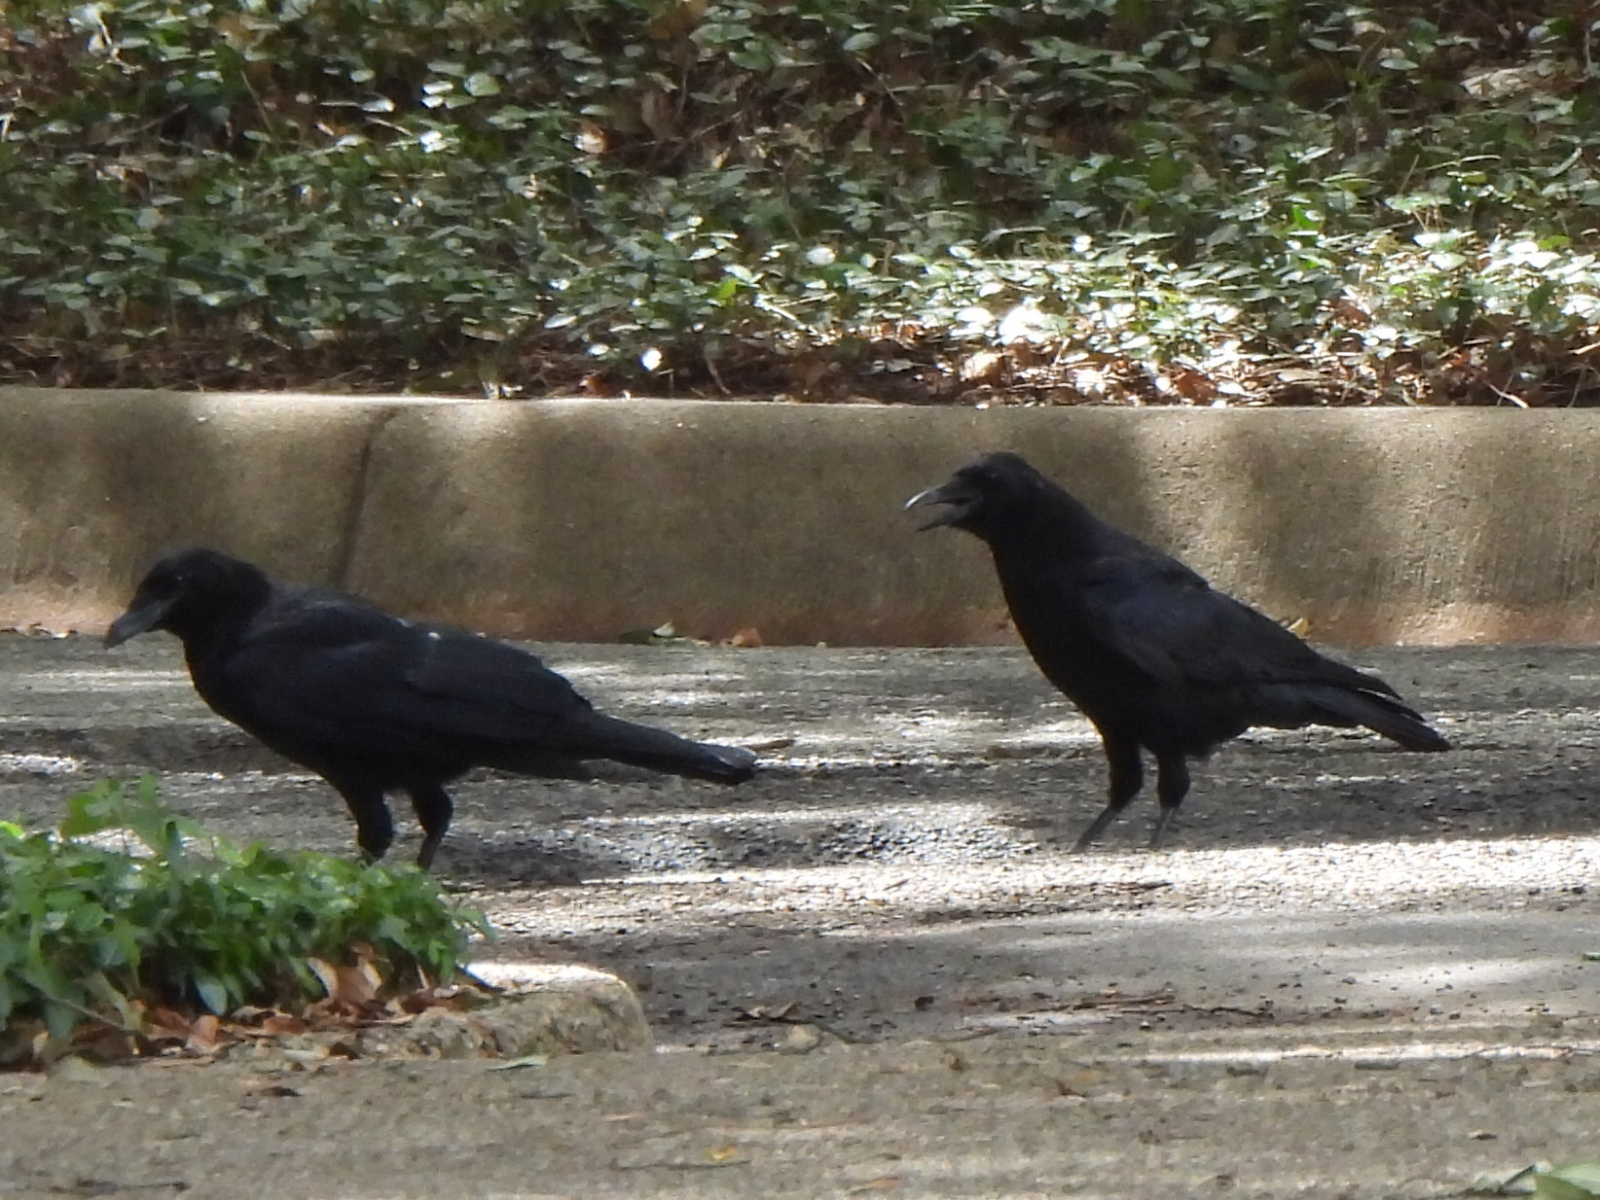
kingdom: Animalia
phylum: Chordata
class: Aves
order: Passeriformes
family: Corvidae
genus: Corvus
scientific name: Corvus brachyrhynchos
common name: American crow
